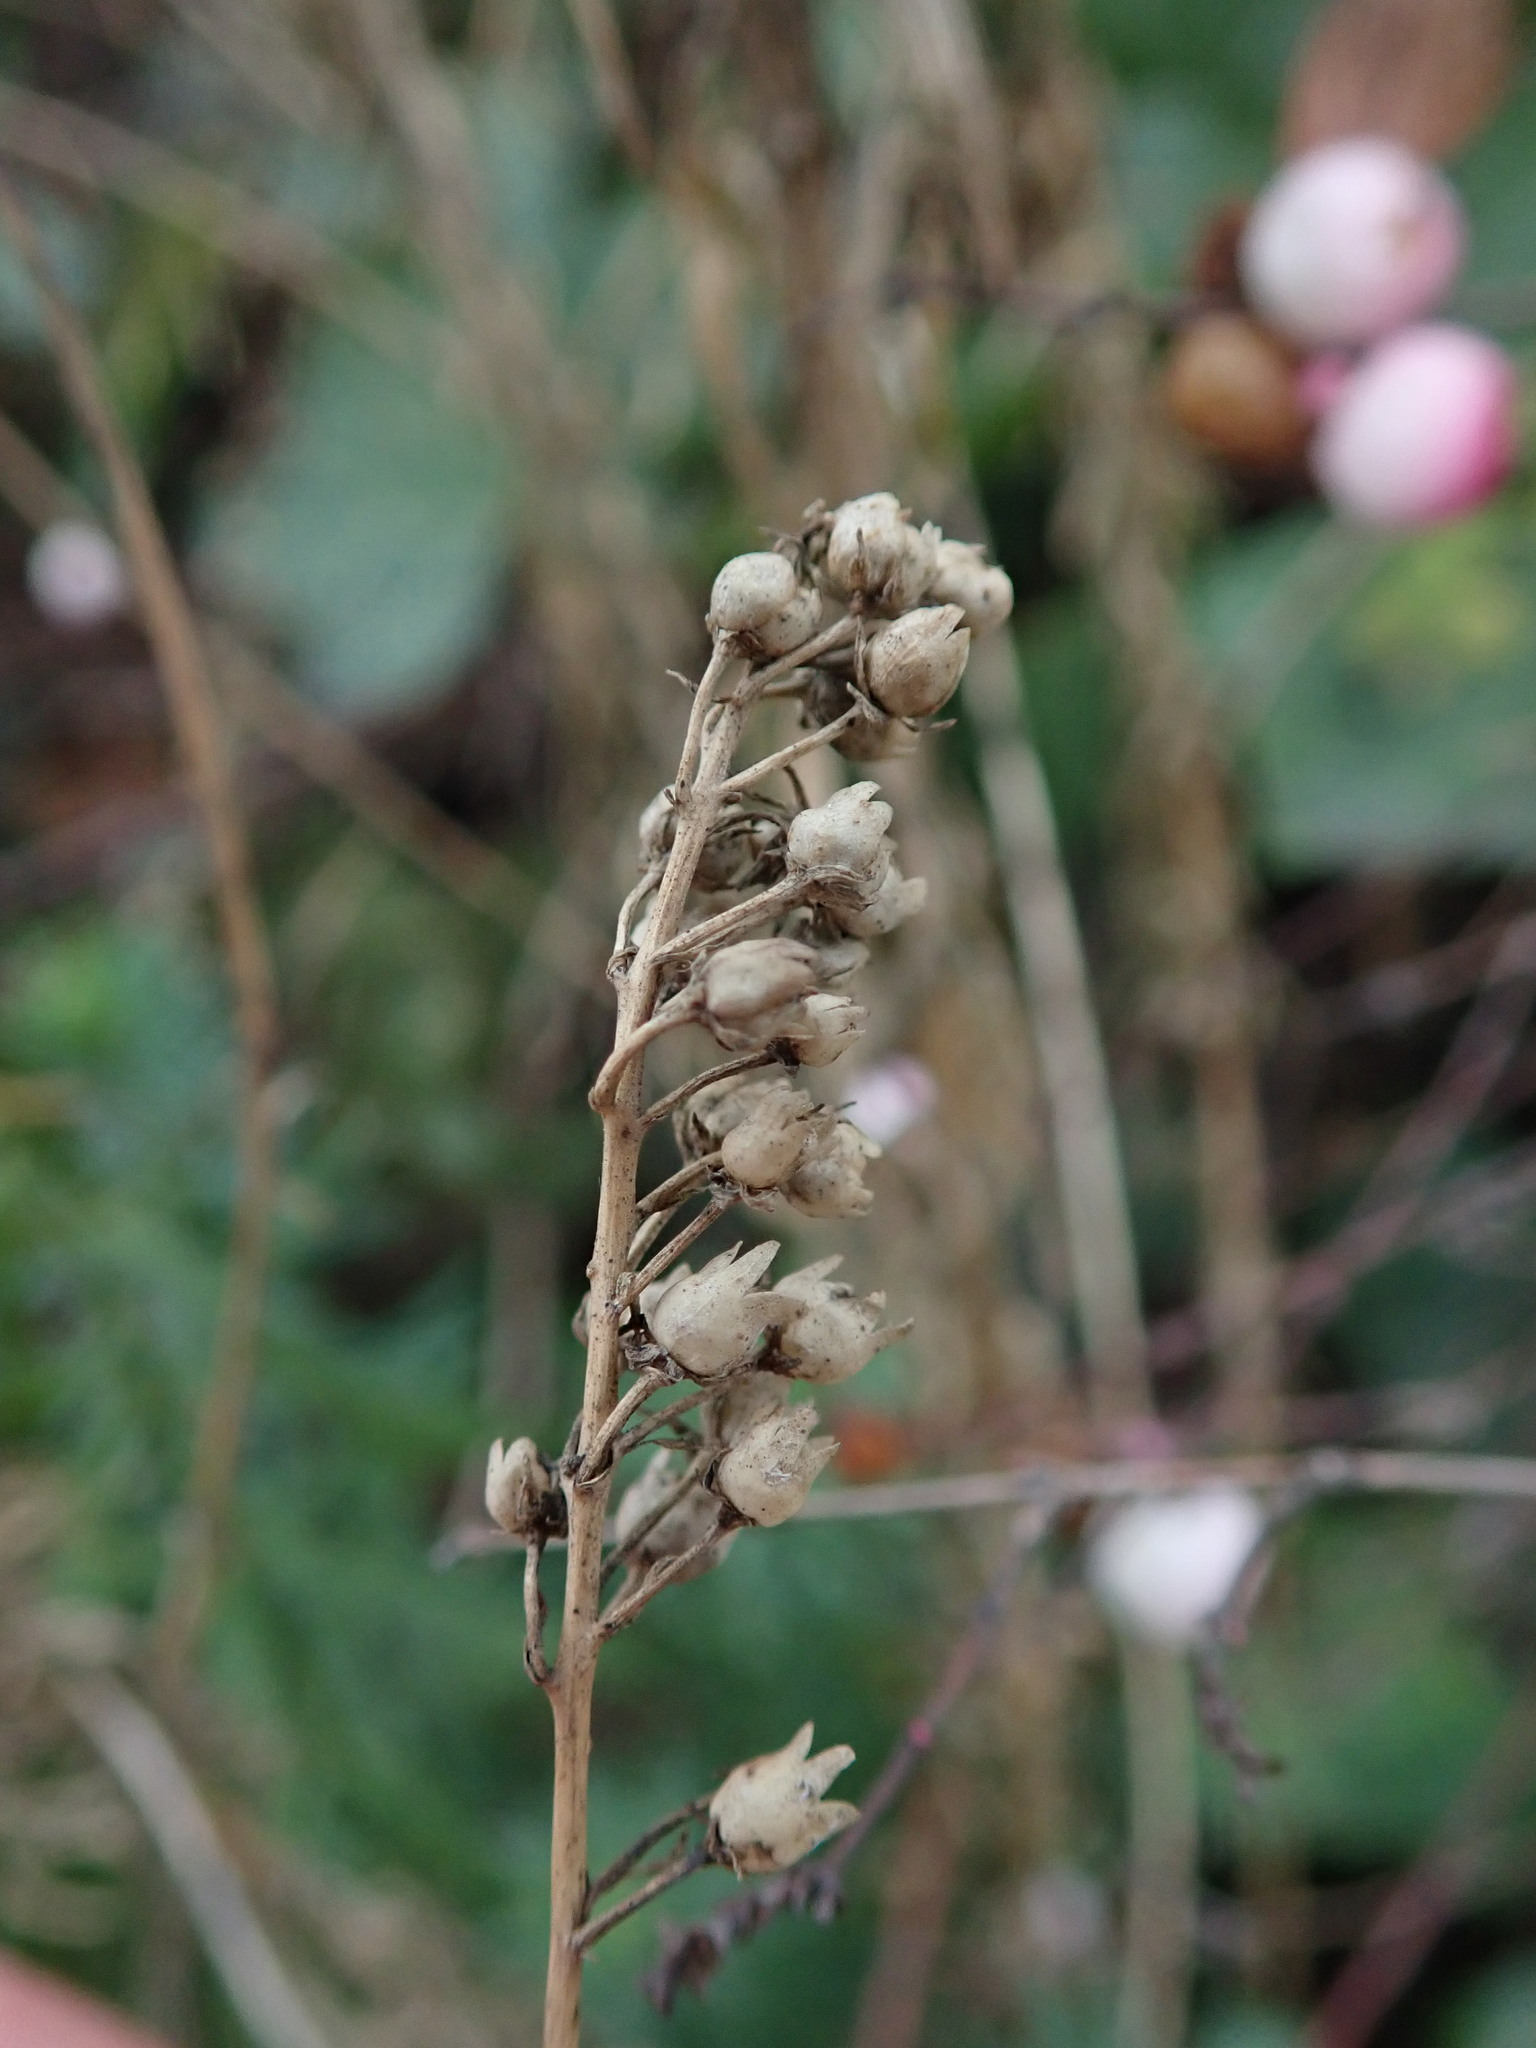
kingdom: Plantae
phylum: Tracheophyta
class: Magnoliopsida
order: Lamiales
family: Plantaginaceae
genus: Linaria
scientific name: Linaria purpurea
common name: Purple toadflax
